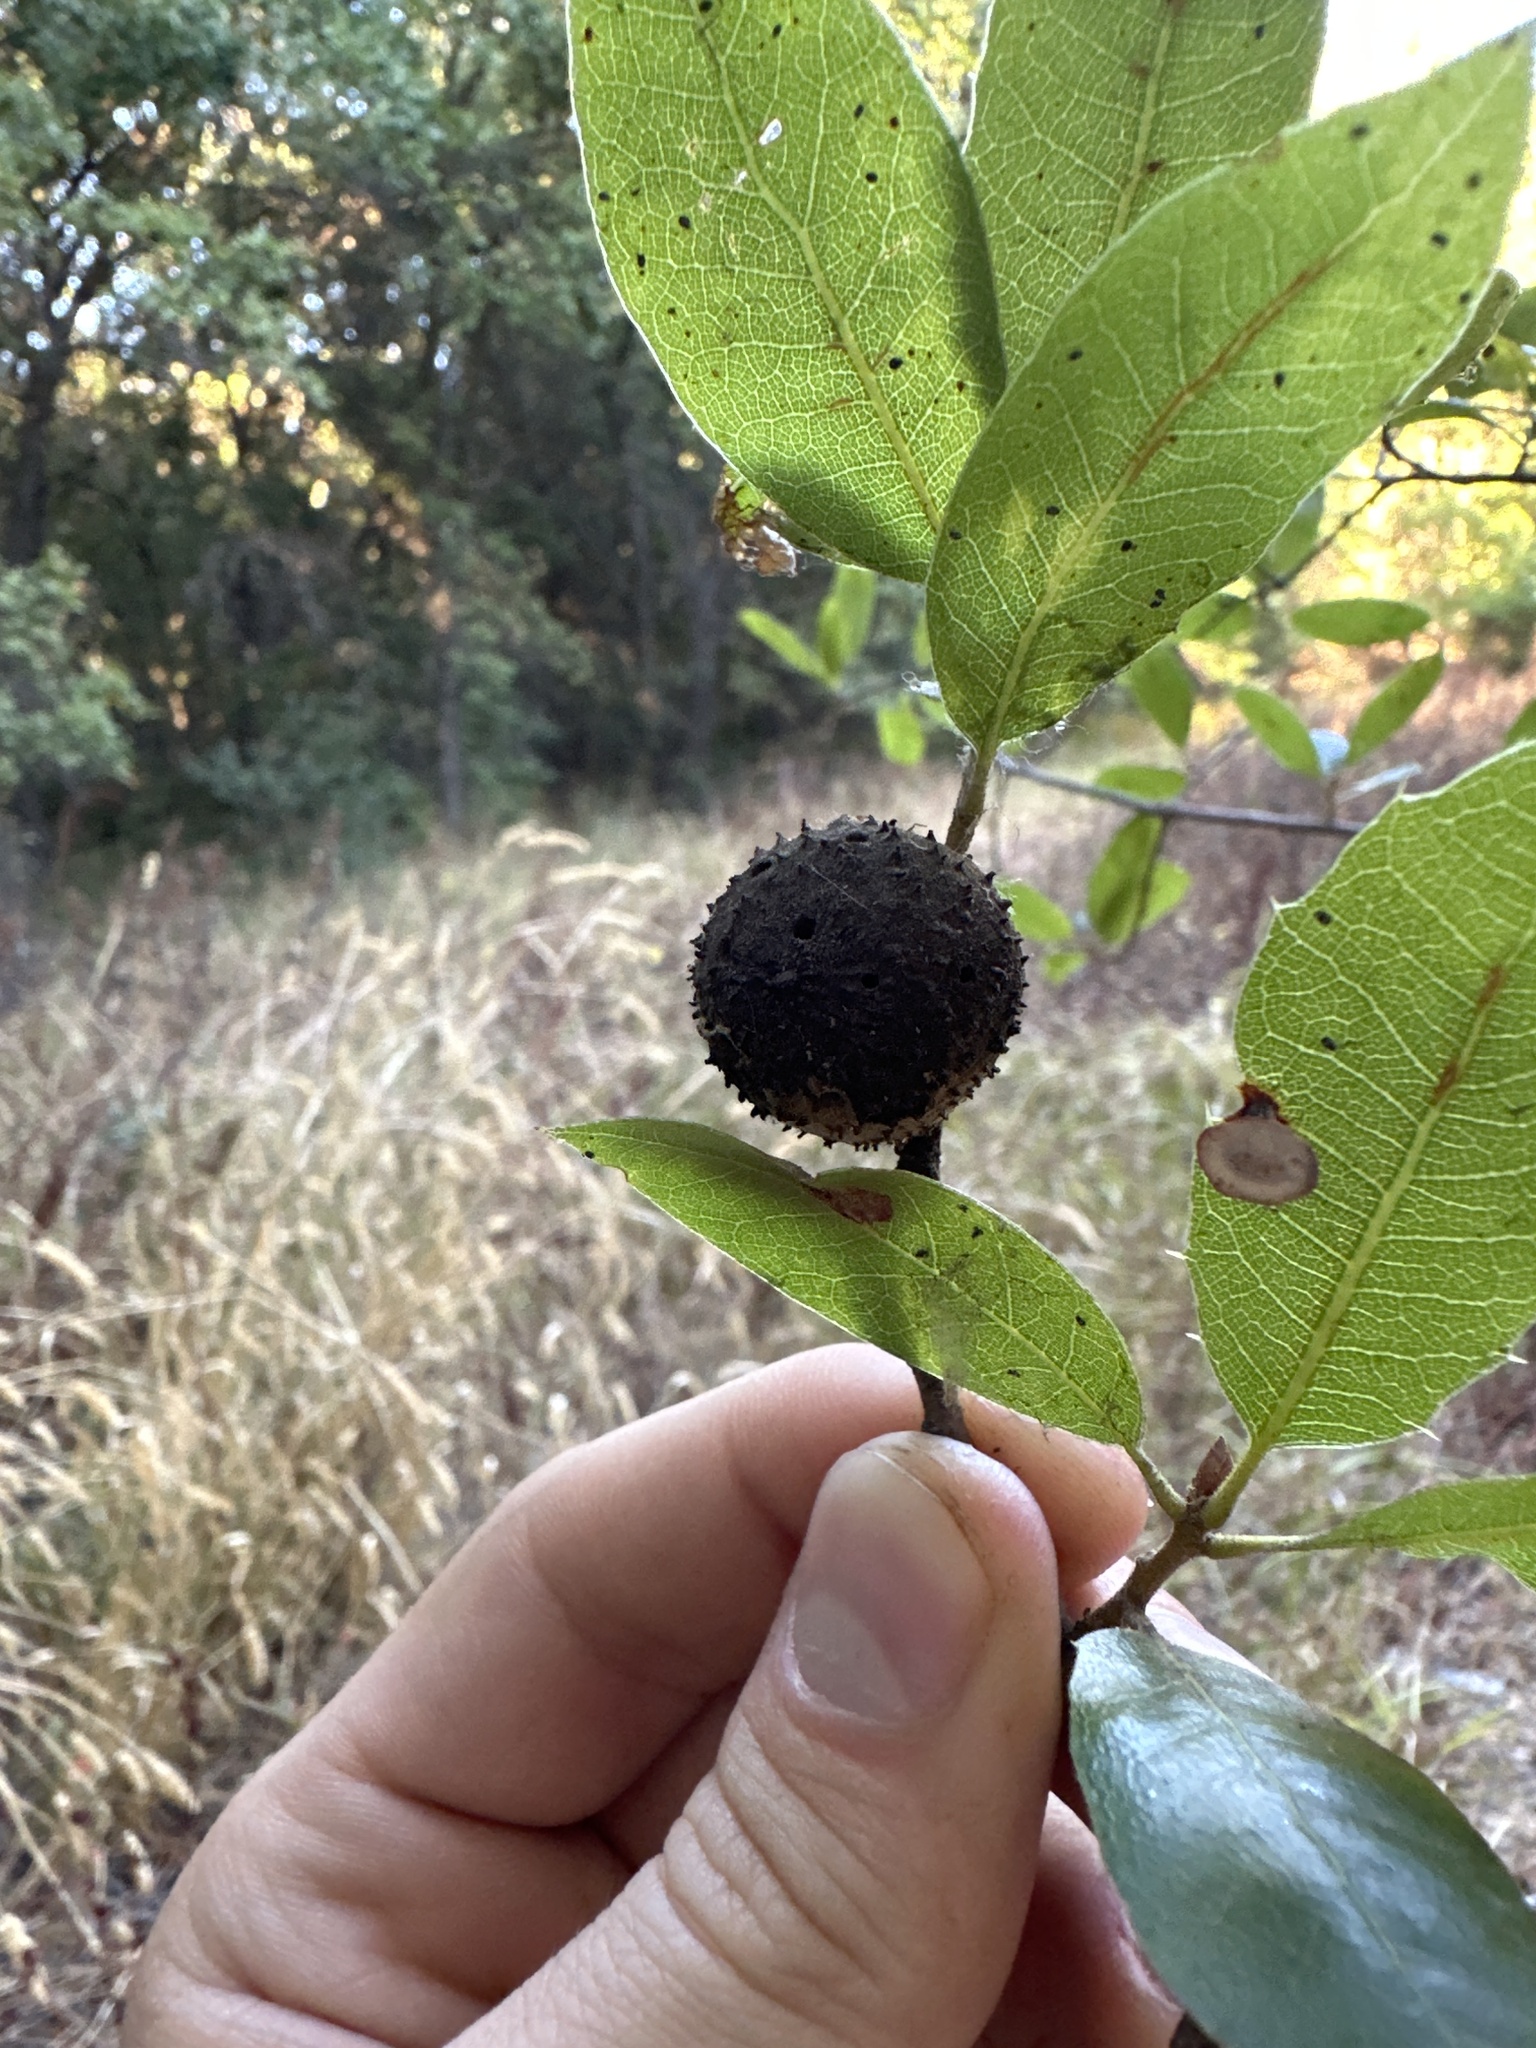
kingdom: Animalia
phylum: Arthropoda
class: Insecta
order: Hymenoptera
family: Cynipidae
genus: Amphibolips
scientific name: Amphibolips quercuspomiformis
